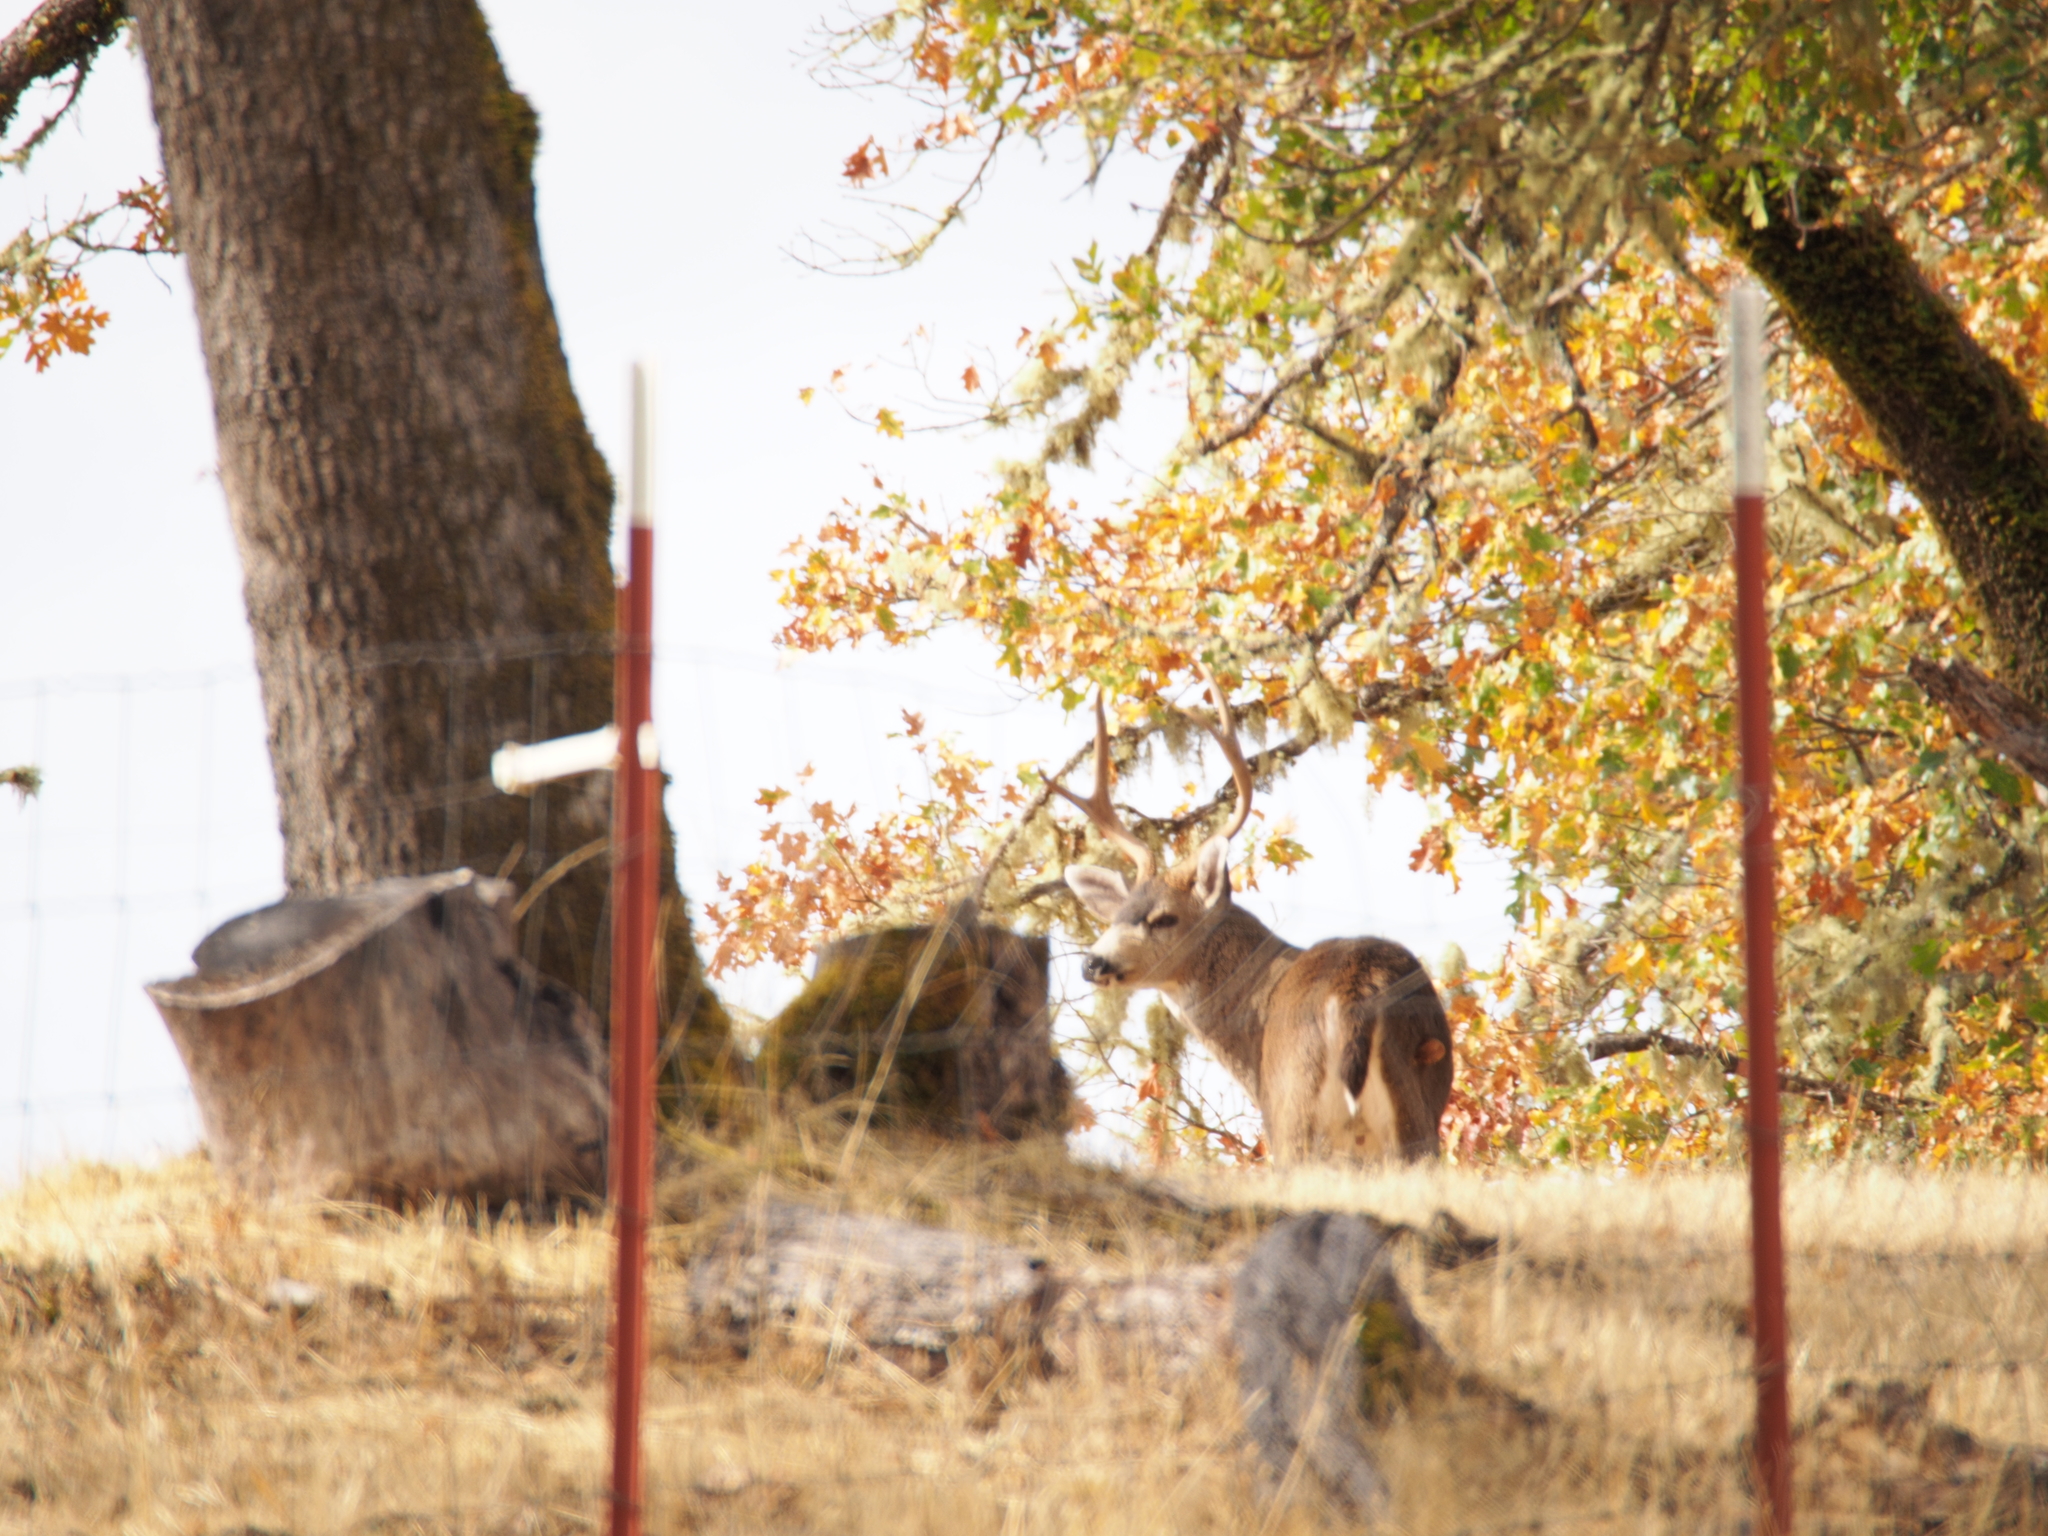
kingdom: Animalia
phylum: Chordata
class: Mammalia
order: Artiodactyla
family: Cervidae
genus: Odocoileus
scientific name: Odocoileus hemionus
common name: Mule deer
